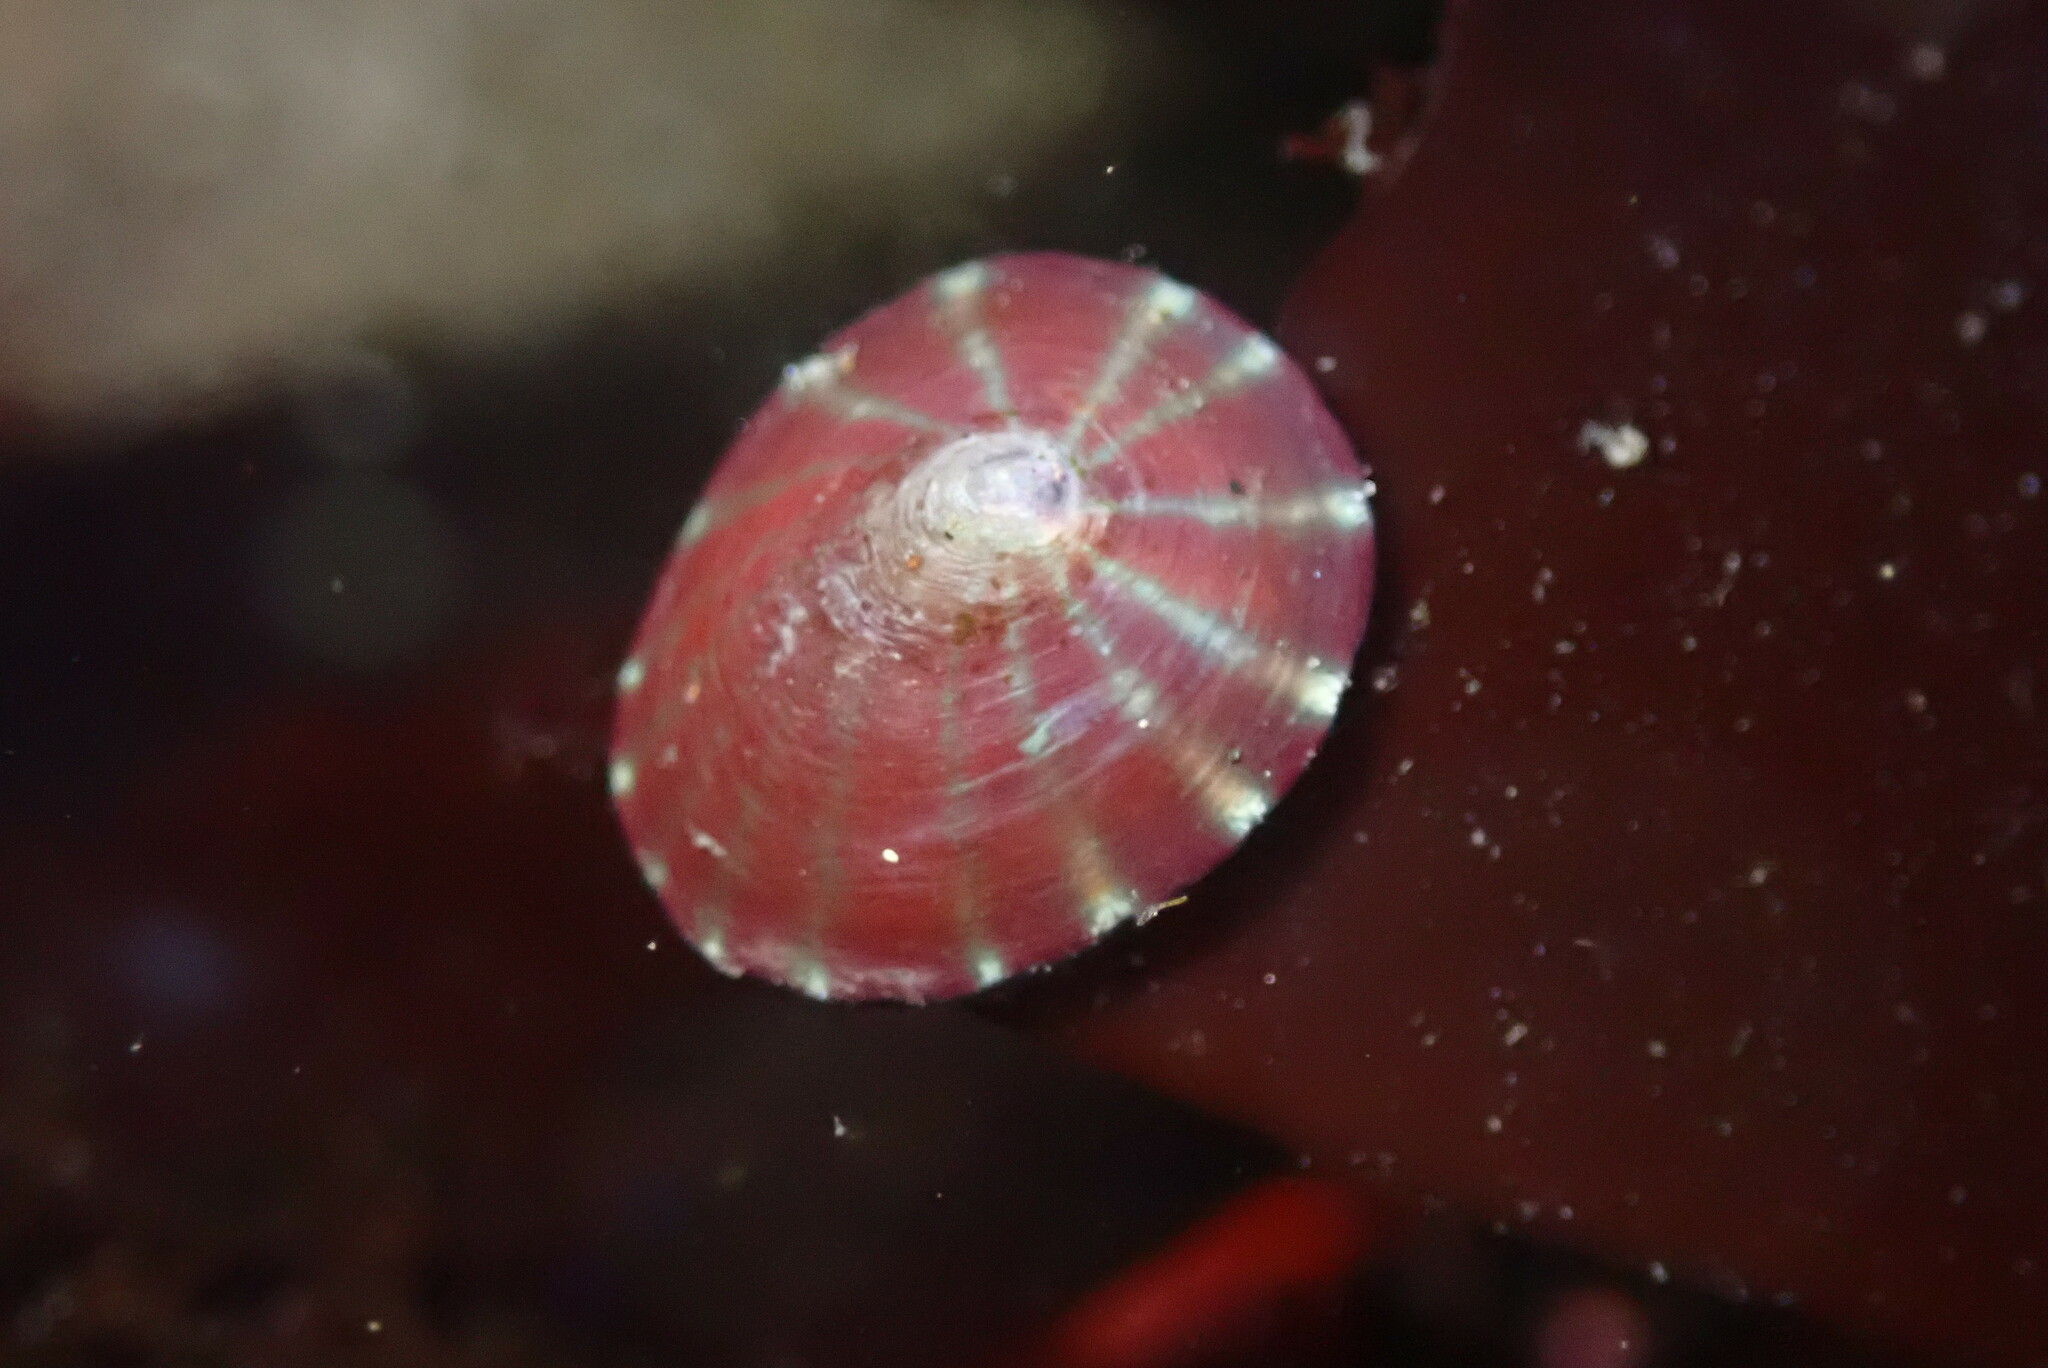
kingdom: Animalia
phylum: Mollusca
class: Gastropoda
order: Siphonariida
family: Siphonariidae
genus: Williamia
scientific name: Williamia peltoides
